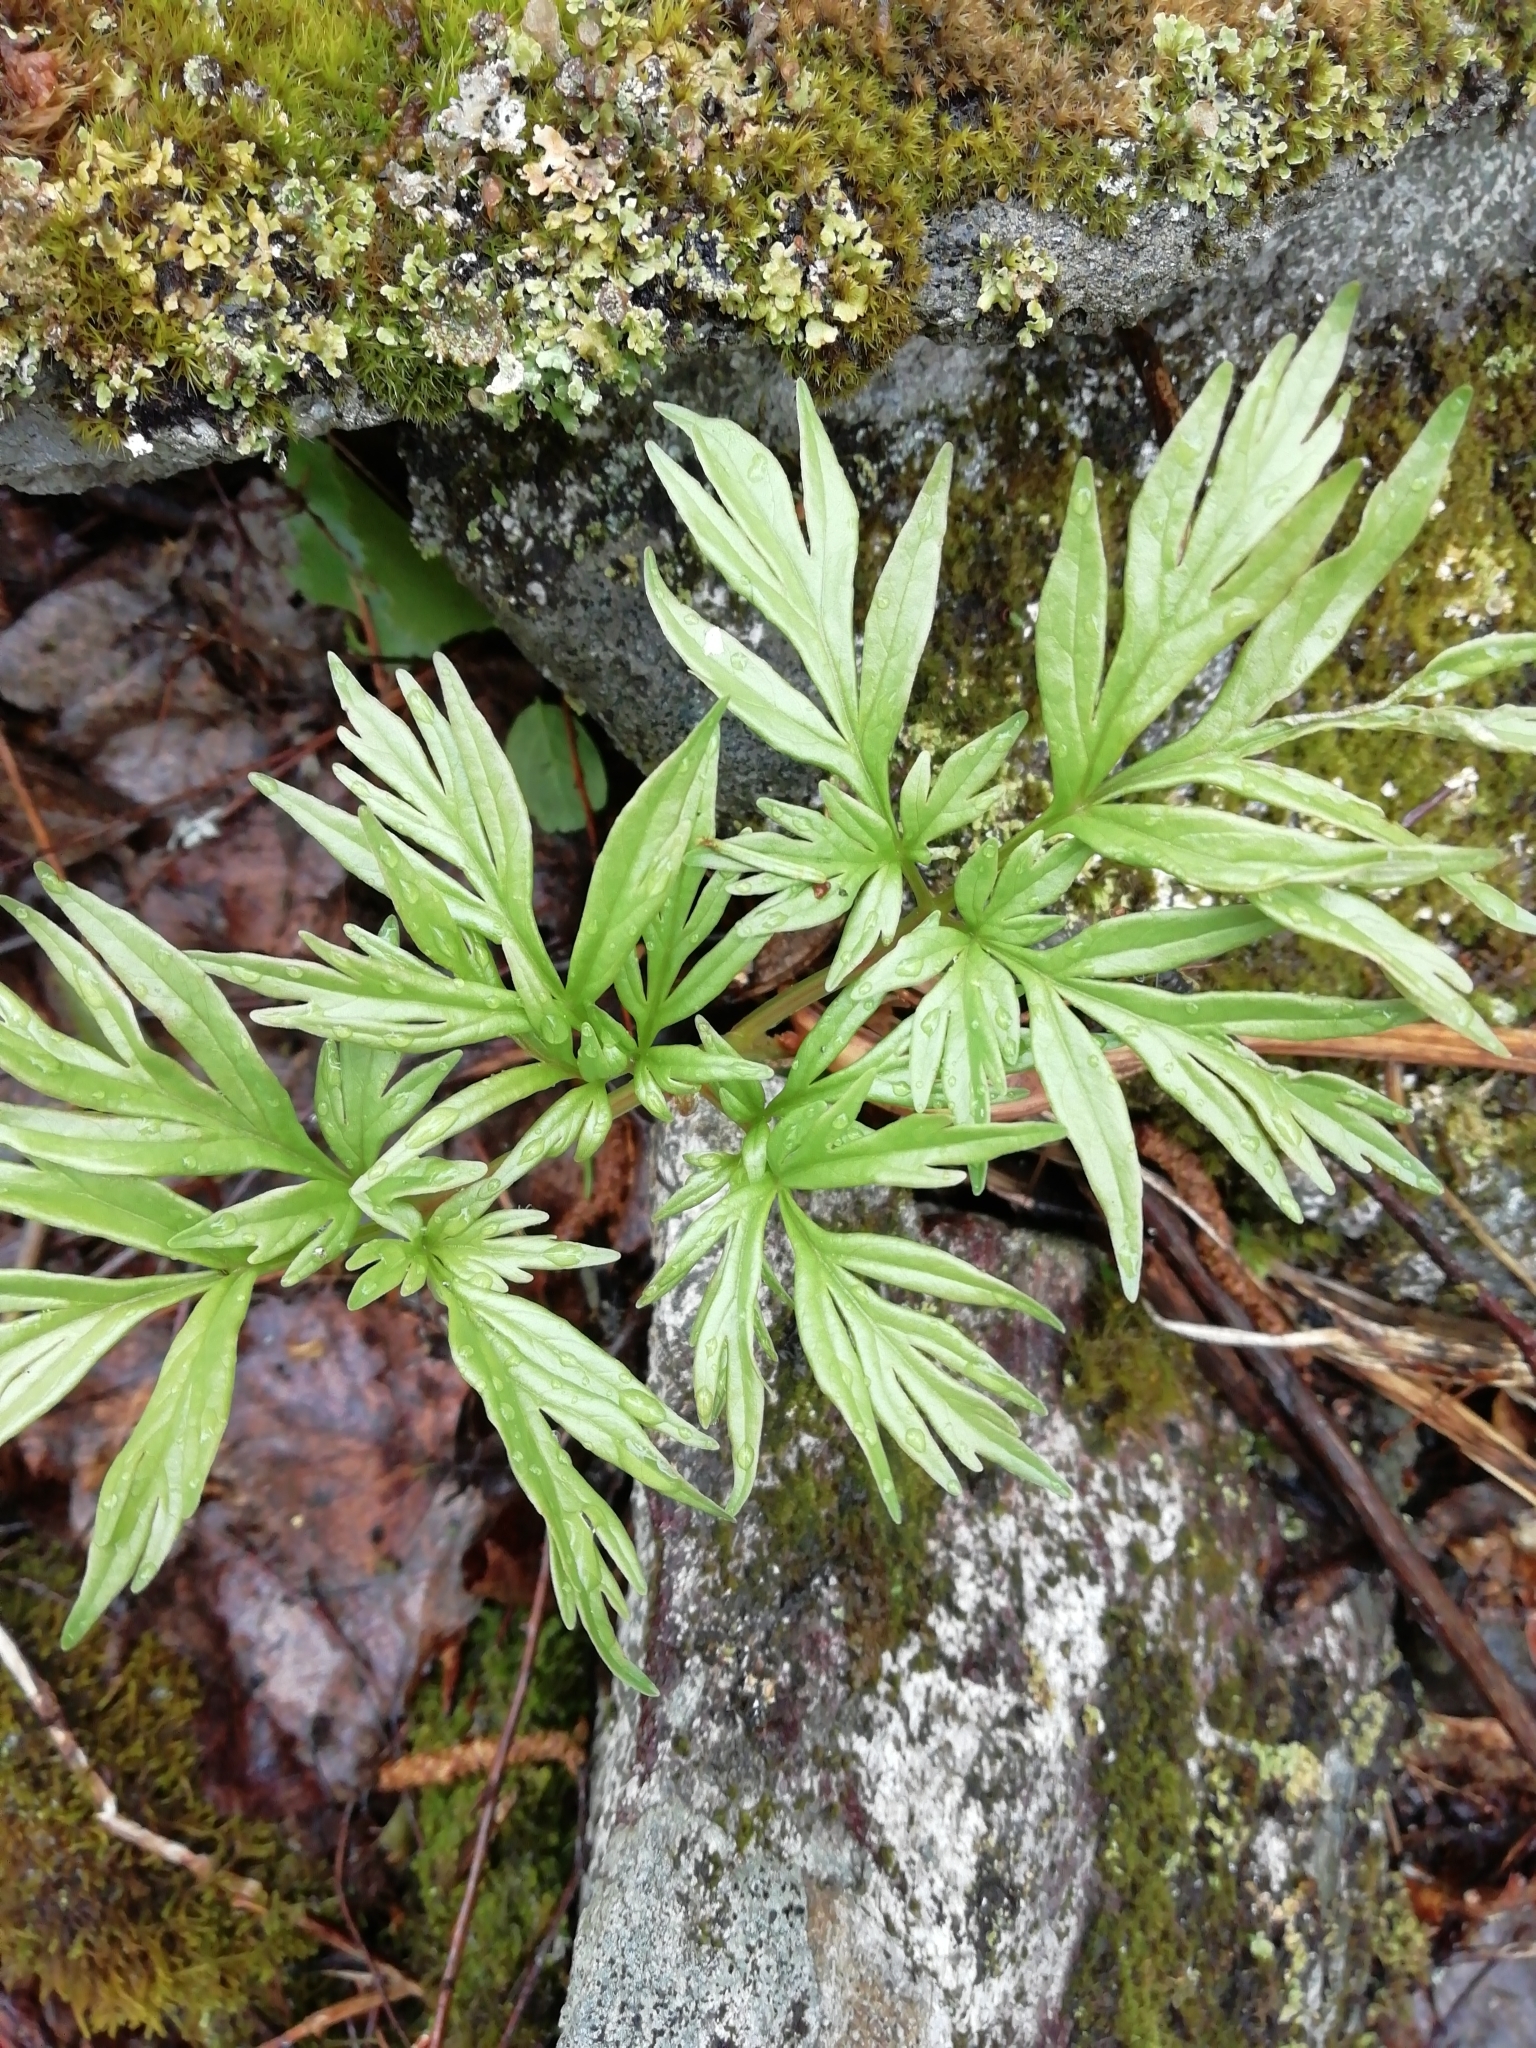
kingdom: Plantae
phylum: Tracheophyta
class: Magnoliopsida
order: Saxifragales
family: Paeoniaceae
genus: Paeonia
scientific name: Paeonia anomala
